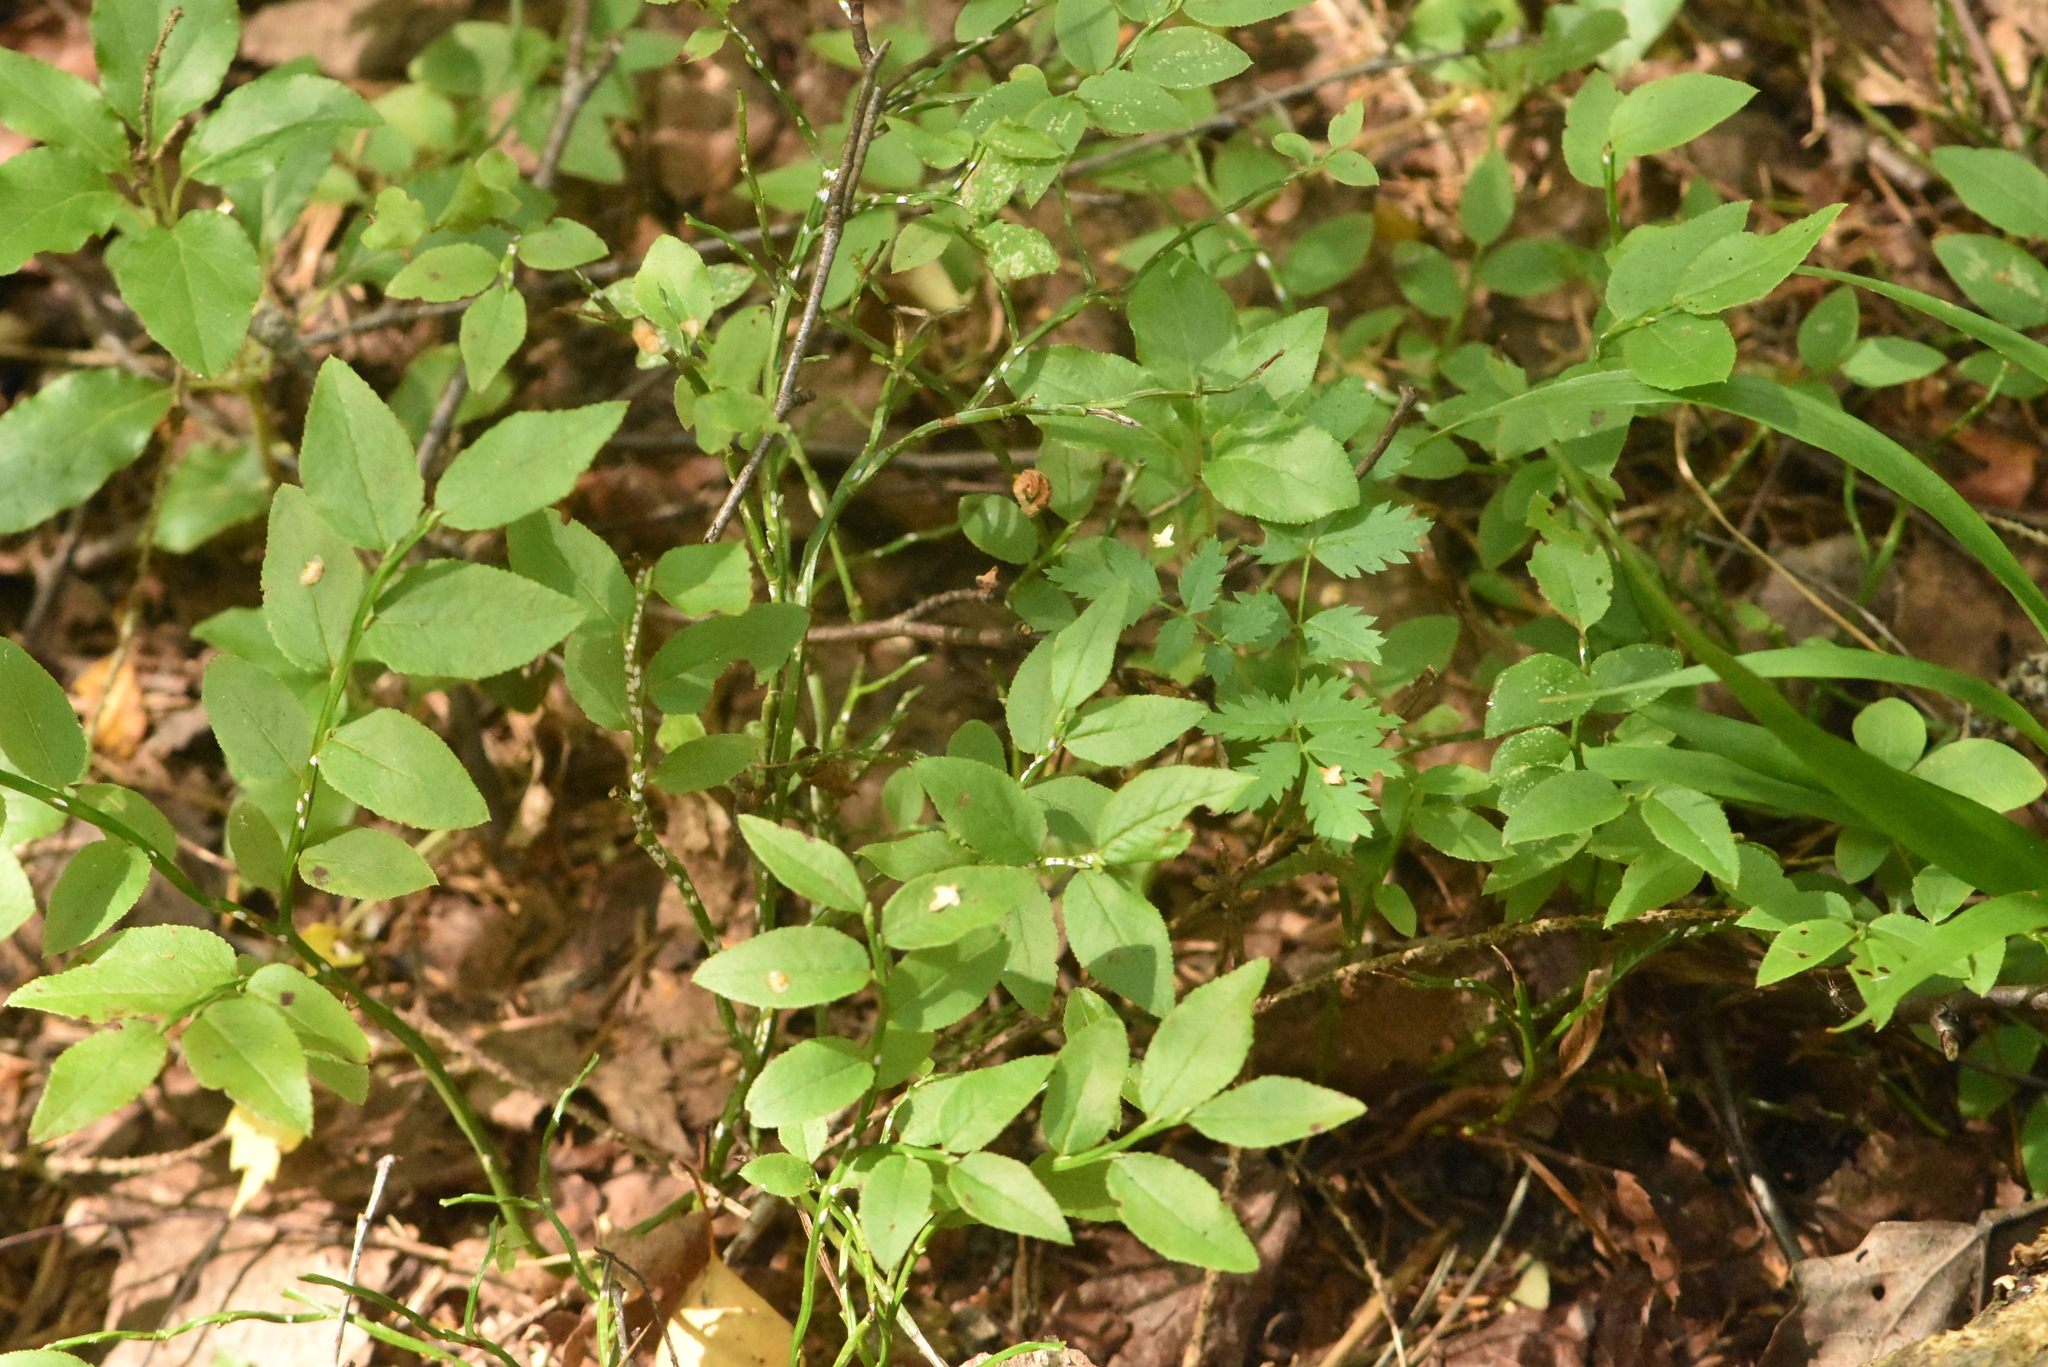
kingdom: Plantae
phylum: Tracheophyta
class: Magnoliopsida
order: Ericales
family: Ericaceae
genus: Vaccinium
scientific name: Vaccinium myrtillus
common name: Bilberry
